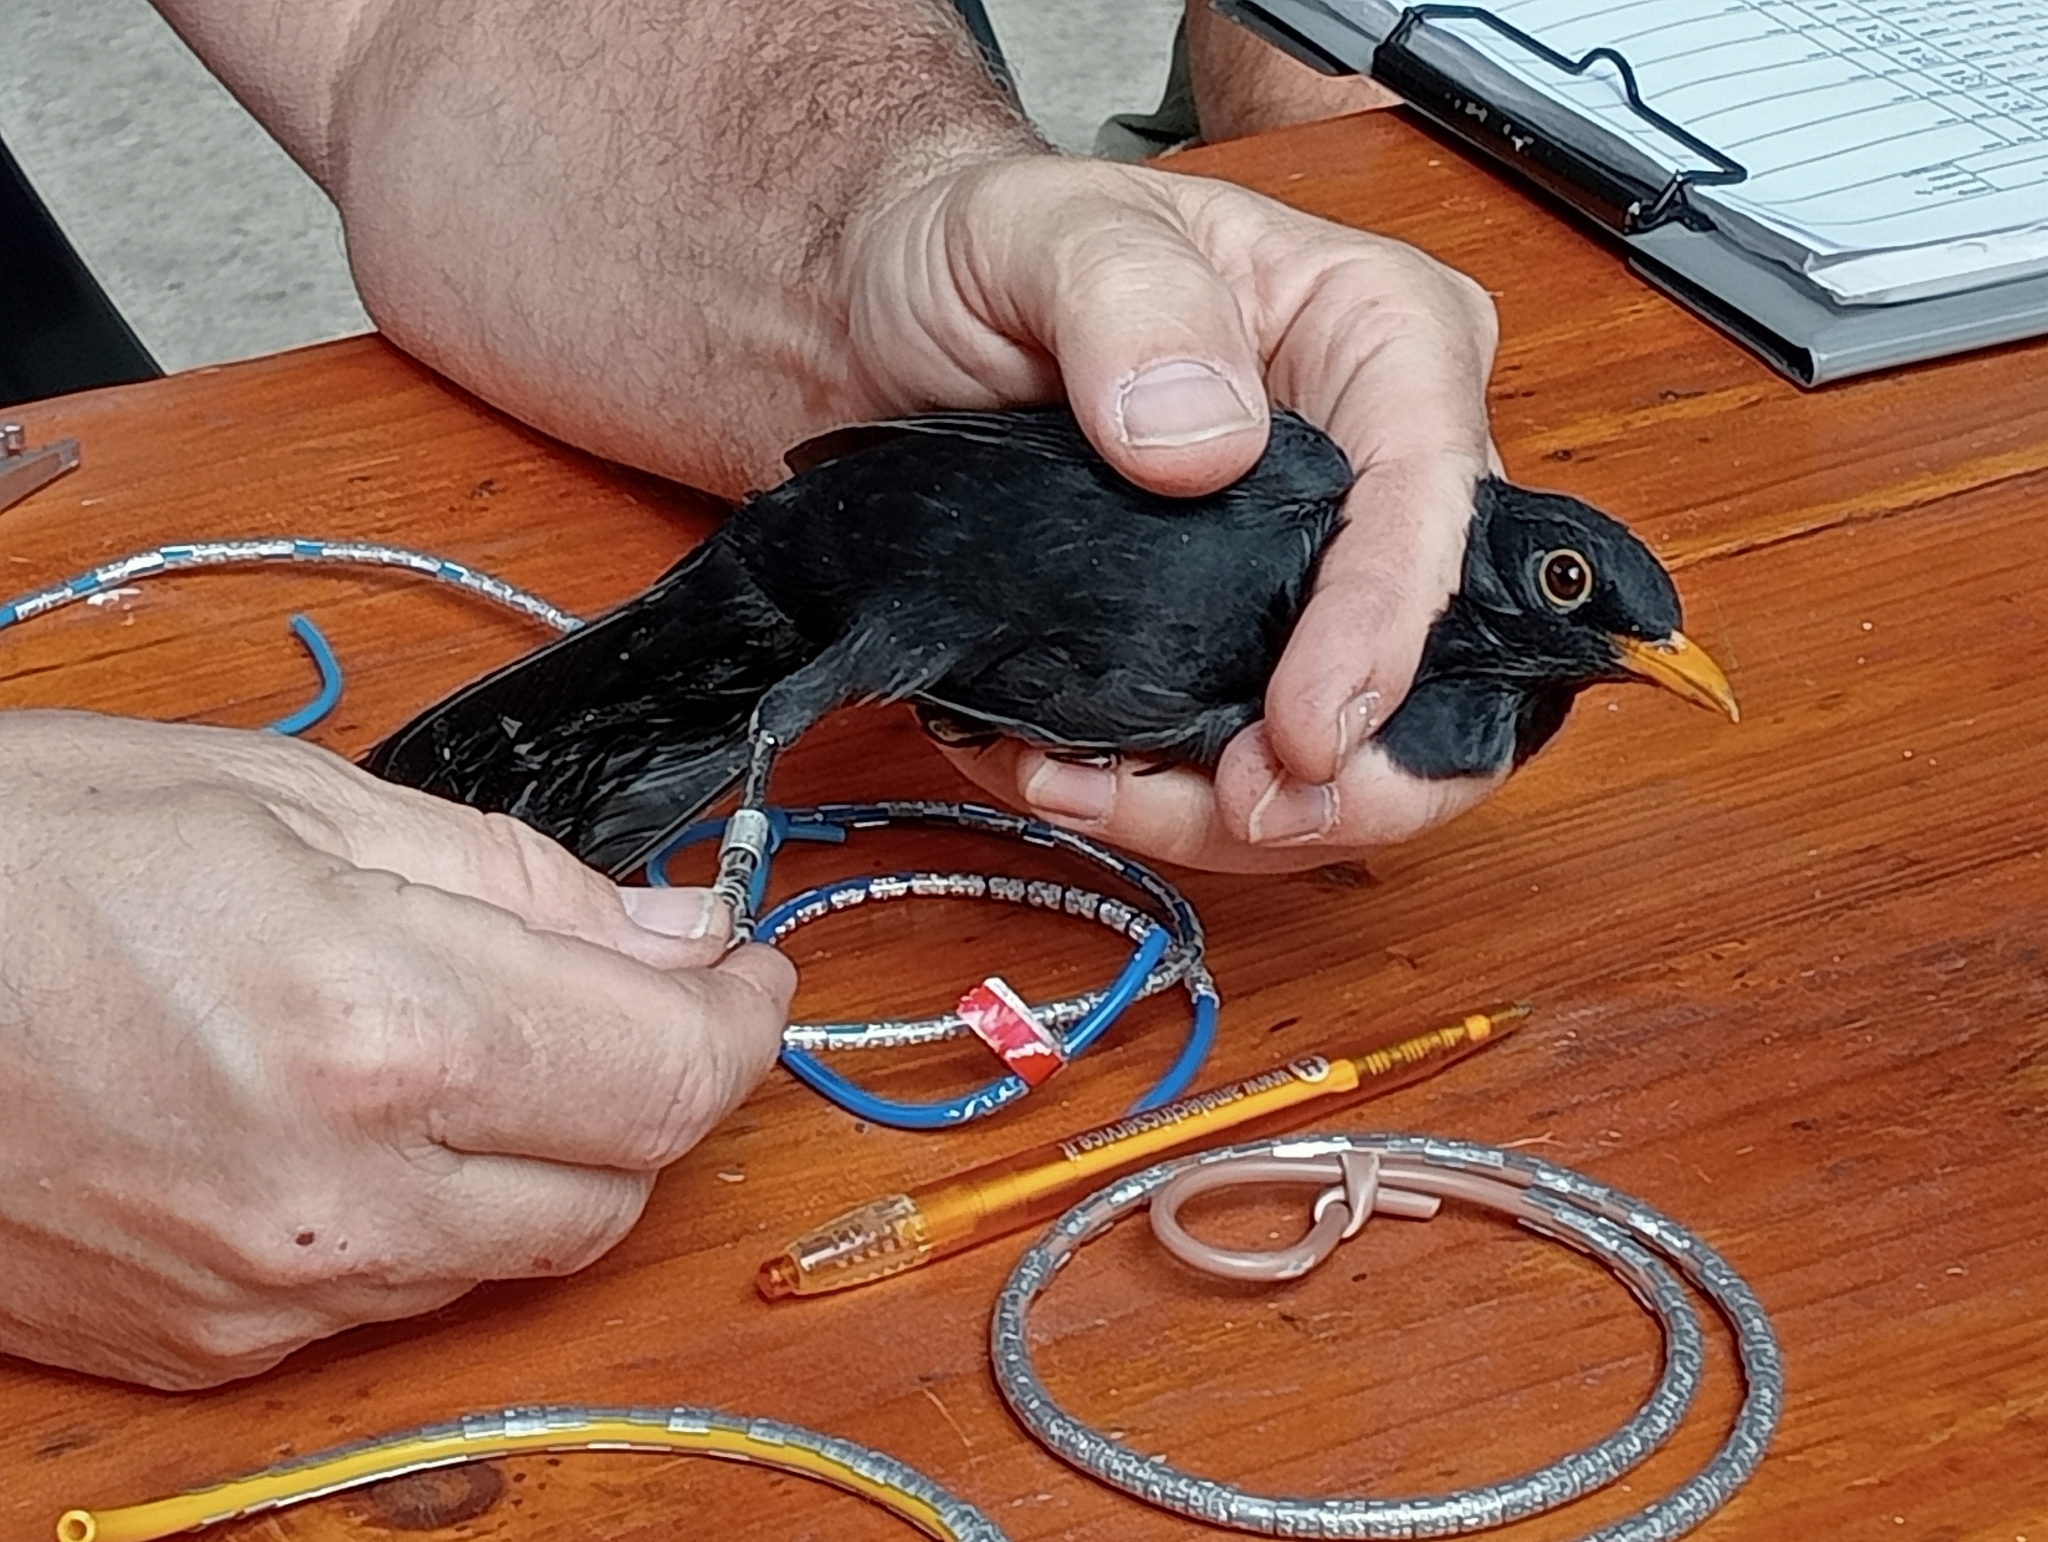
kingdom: Animalia
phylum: Chordata
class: Aves
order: Passeriformes
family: Turdidae
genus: Turdus
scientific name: Turdus merula
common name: Common blackbird
